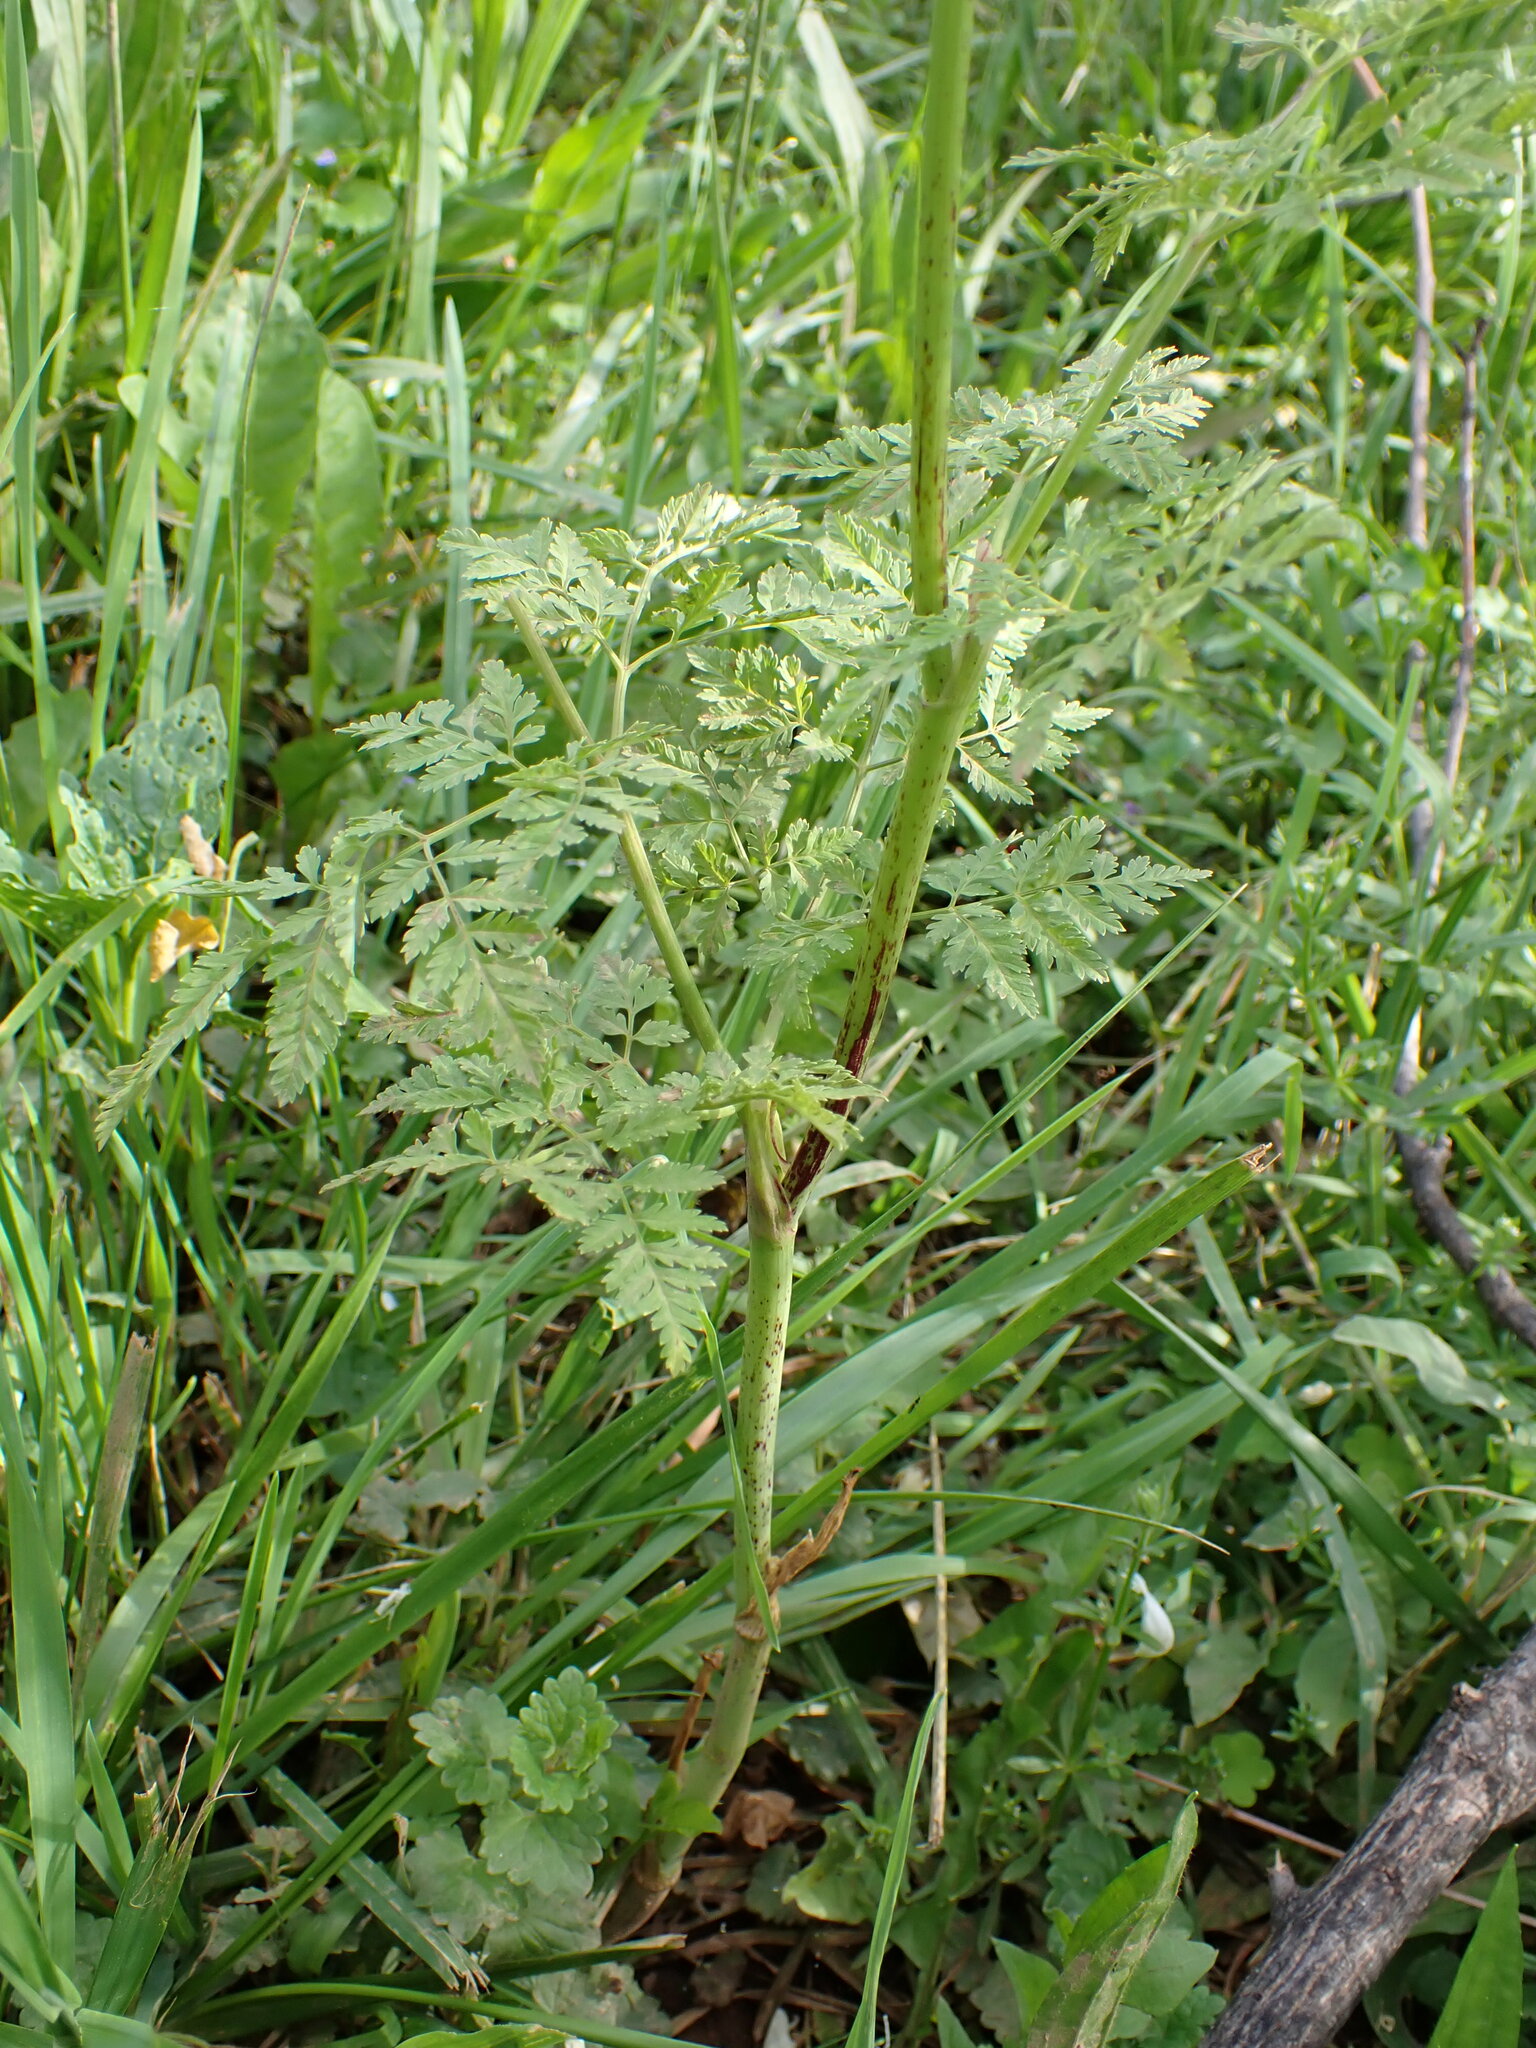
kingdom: Plantae
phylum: Tracheophyta
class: Magnoliopsida
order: Apiales
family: Apiaceae
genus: Conium
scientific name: Conium maculatum
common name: Hemlock
